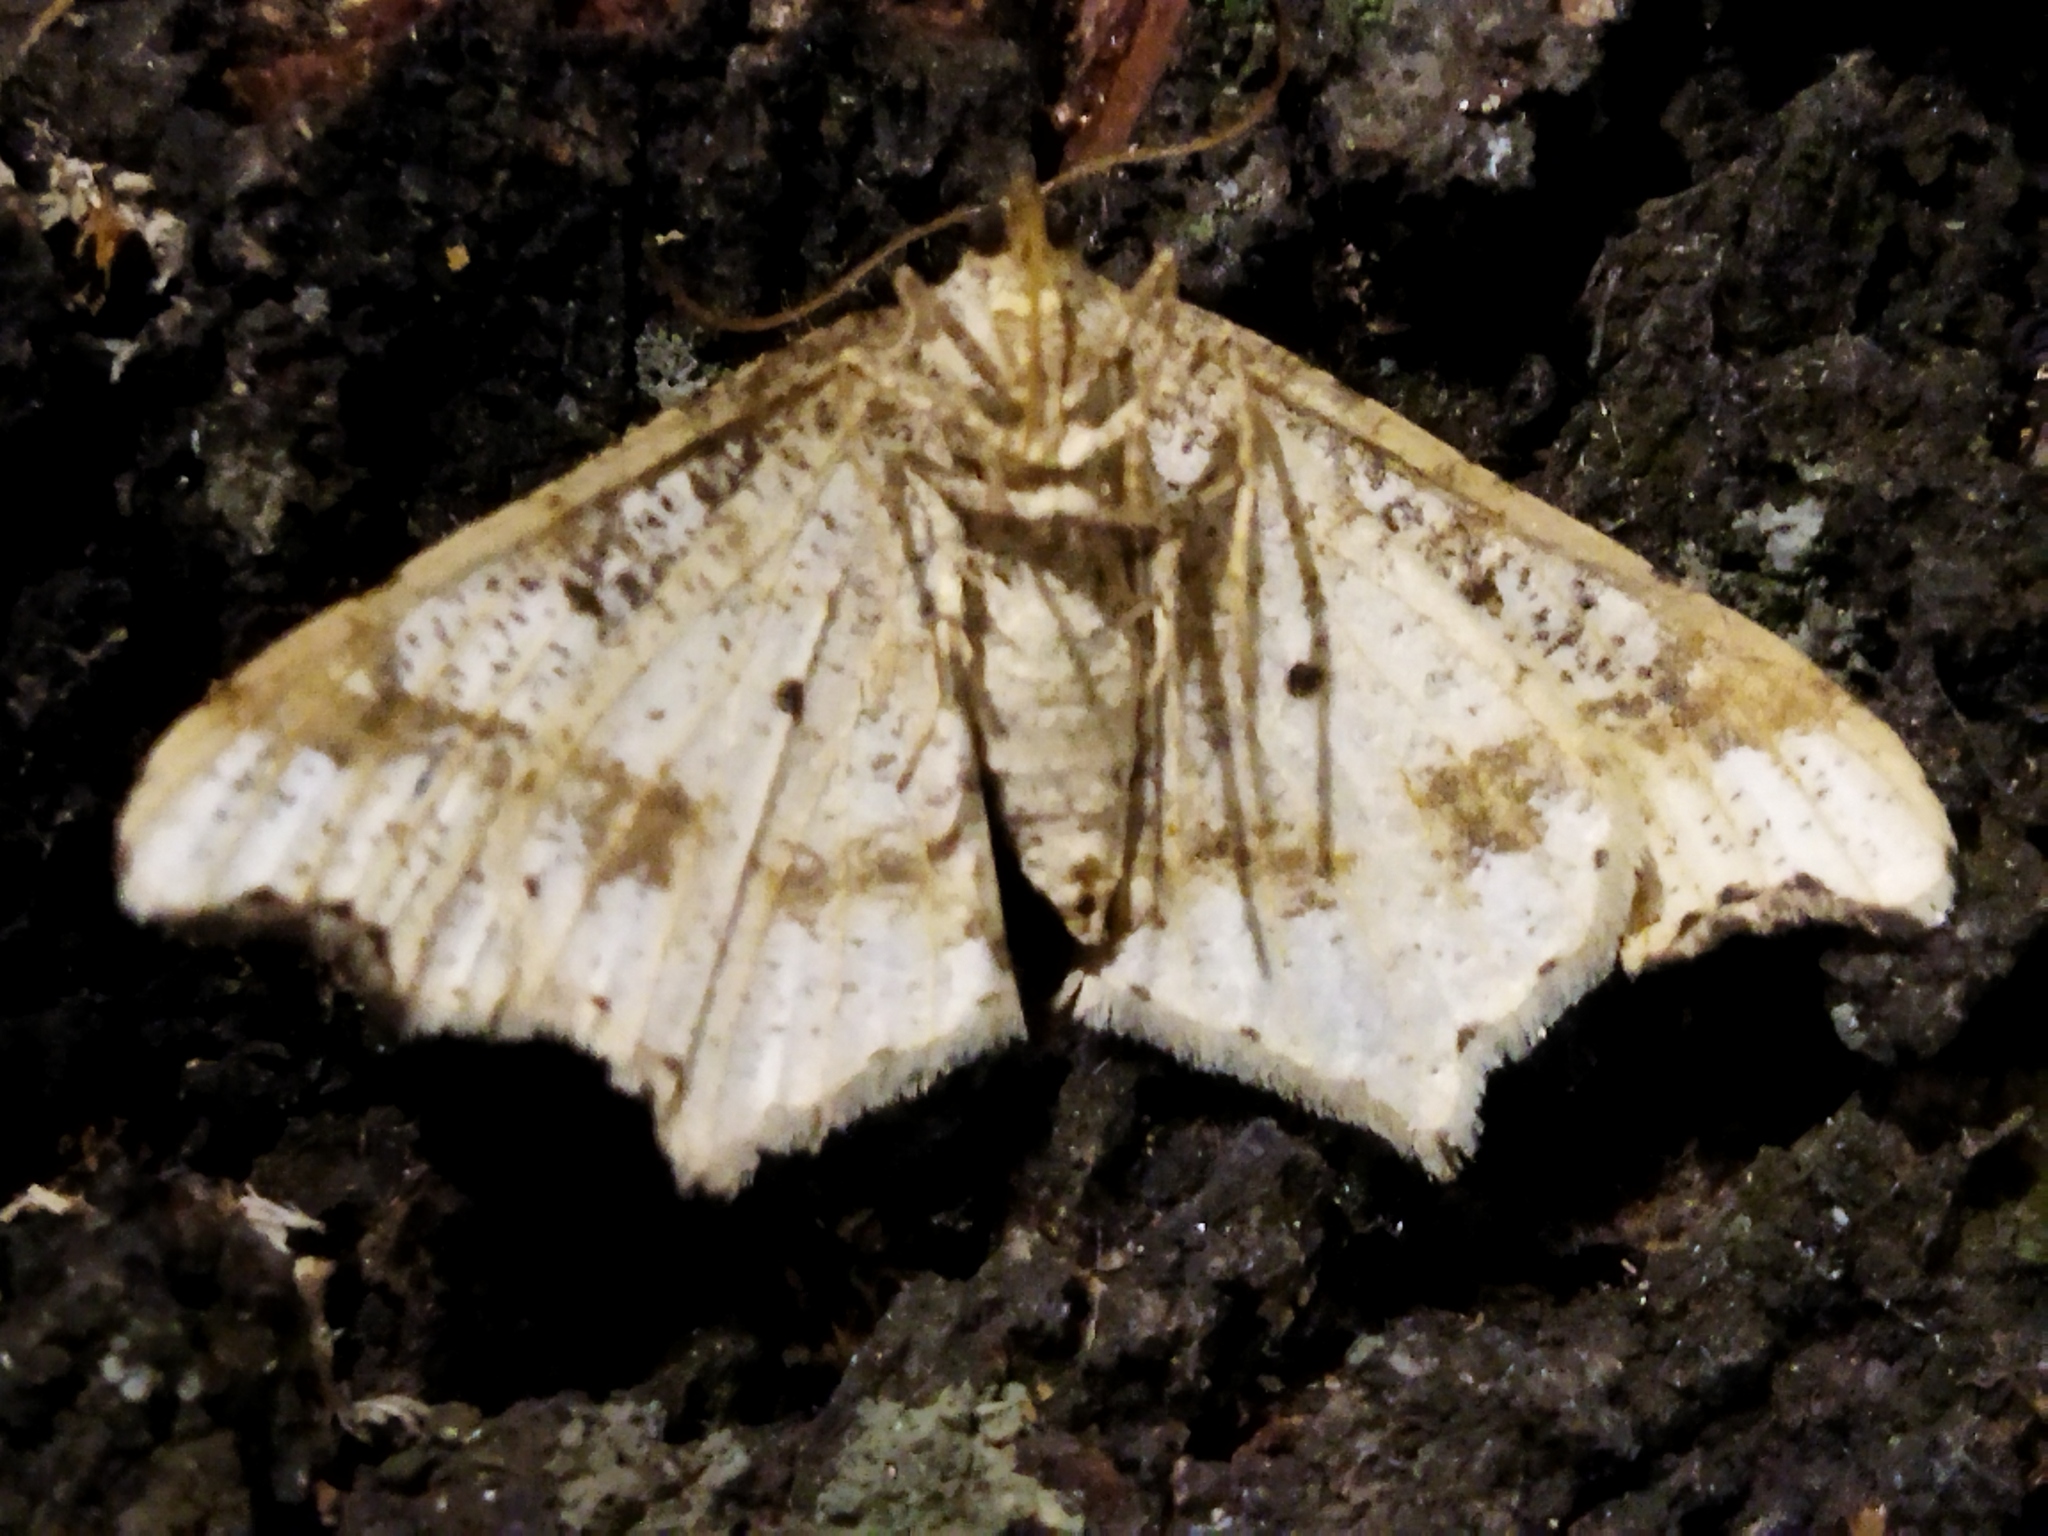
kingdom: Animalia
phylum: Arthropoda
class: Insecta
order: Lepidoptera
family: Geometridae
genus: Macaria
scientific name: Macaria alternata
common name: Sharp-angled peacock
